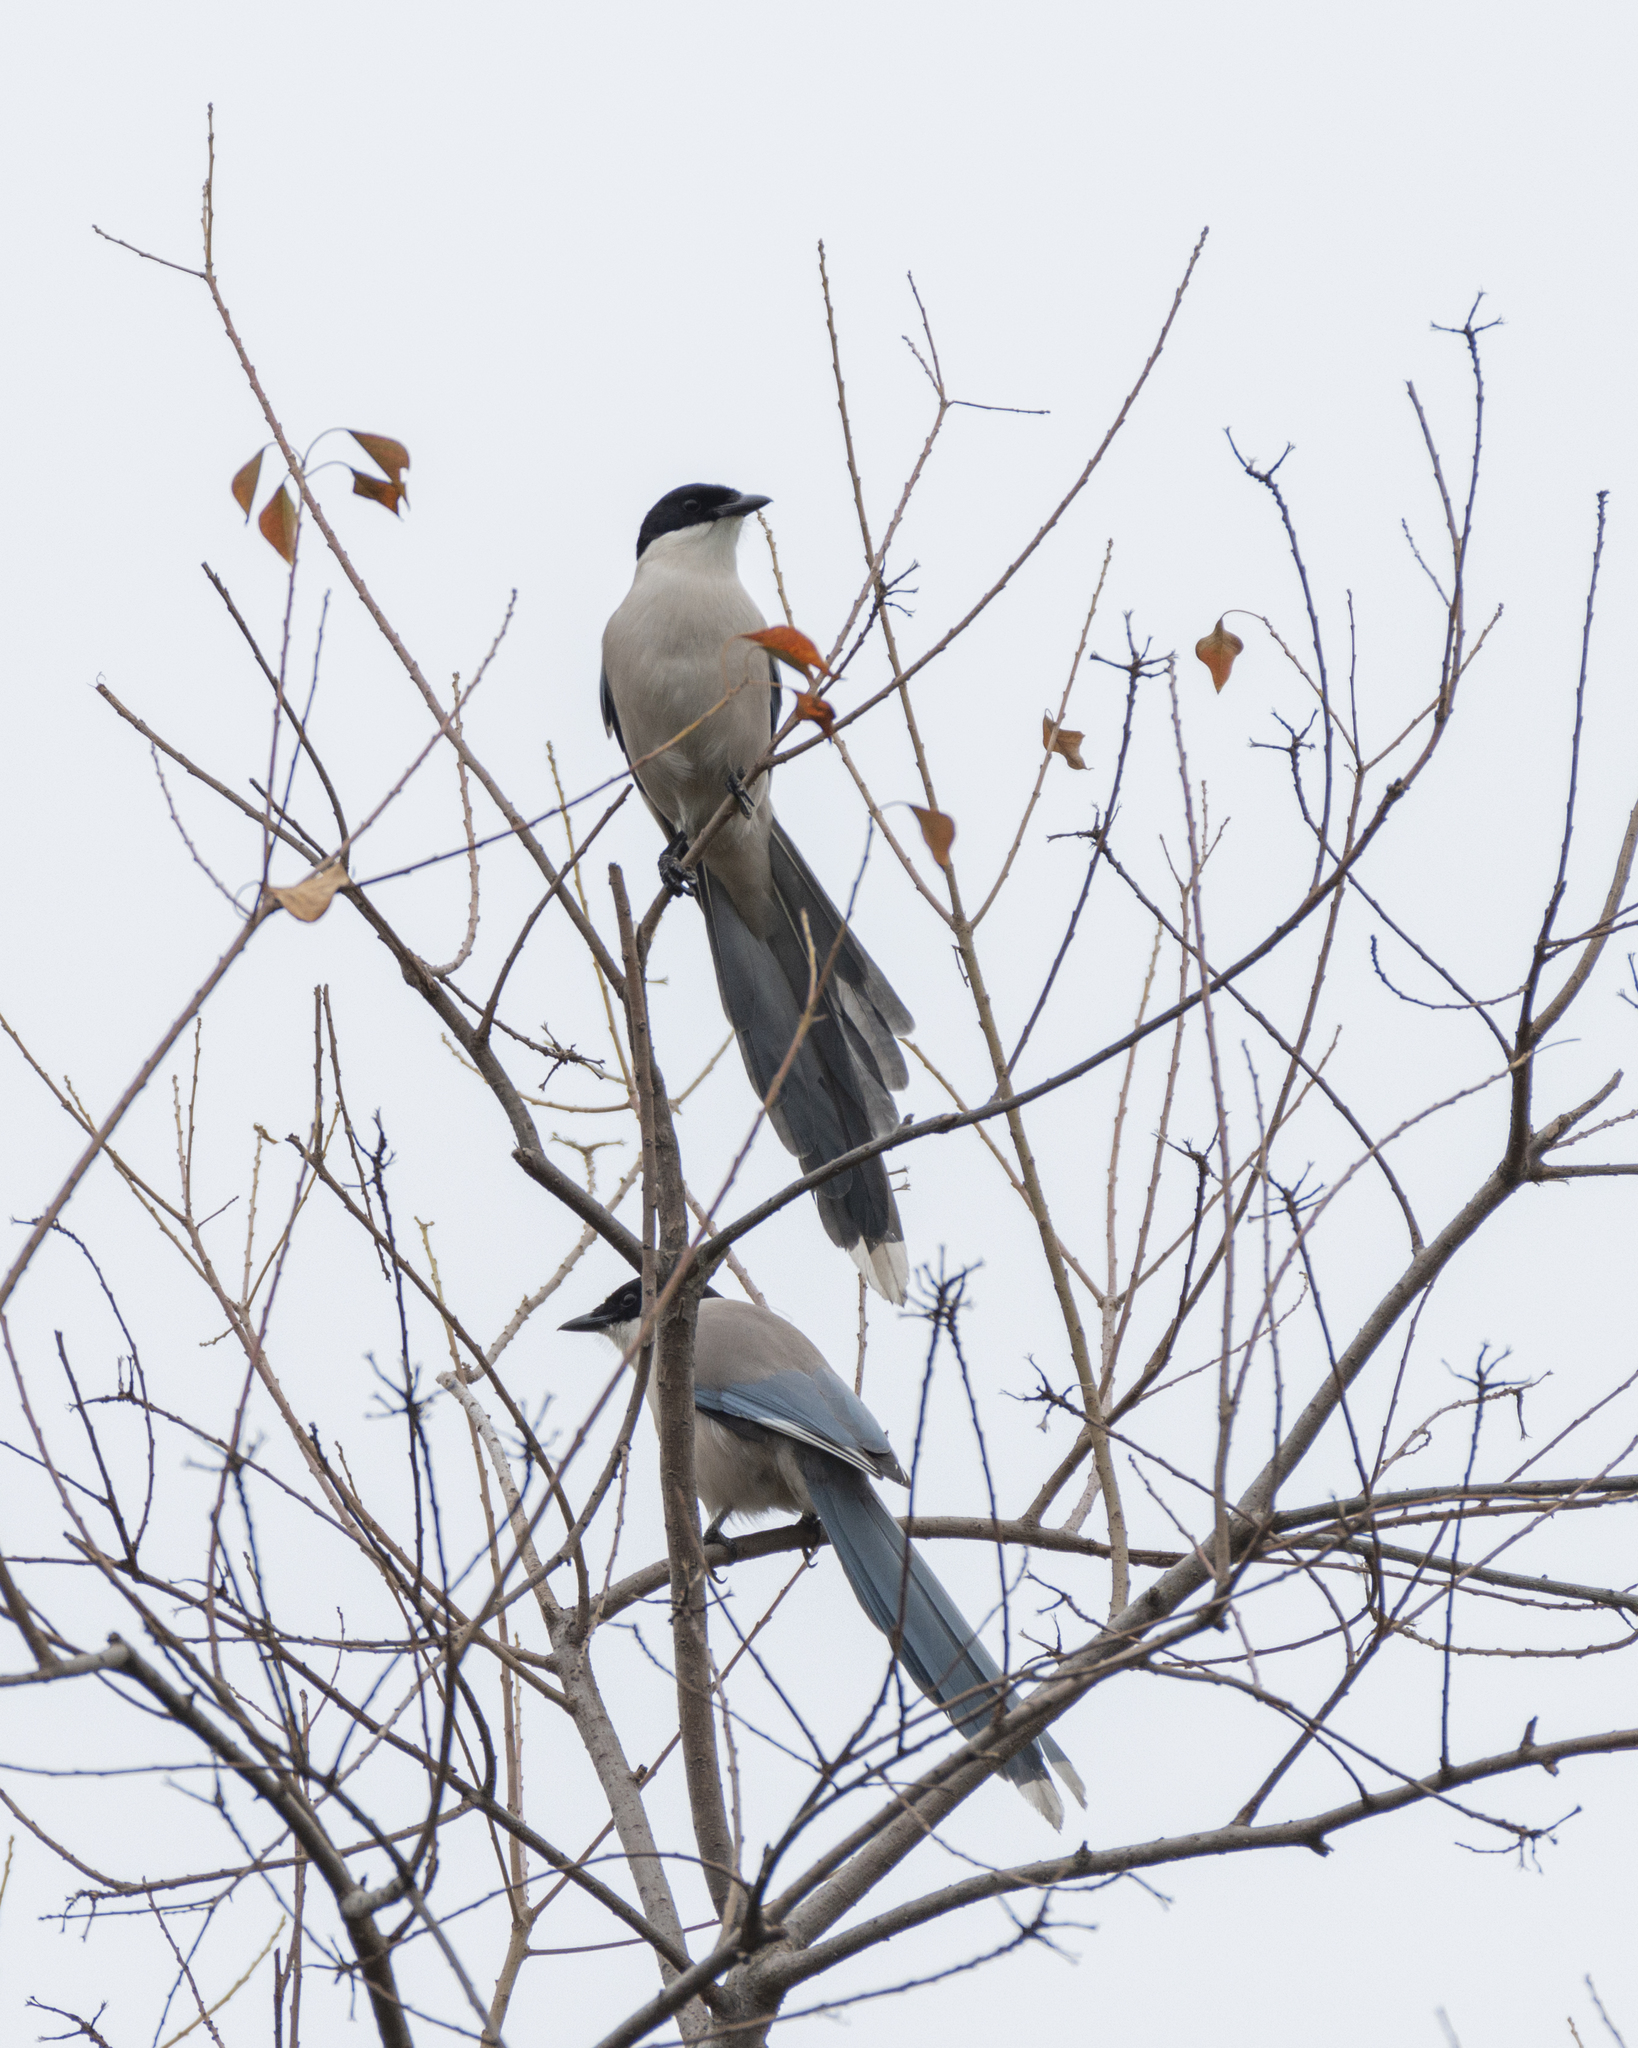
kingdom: Animalia
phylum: Chordata
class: Aves
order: Passeriformes
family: Corvidae
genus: Cyanopica
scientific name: Cyanopica cyanus
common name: Azure-winged magpie
